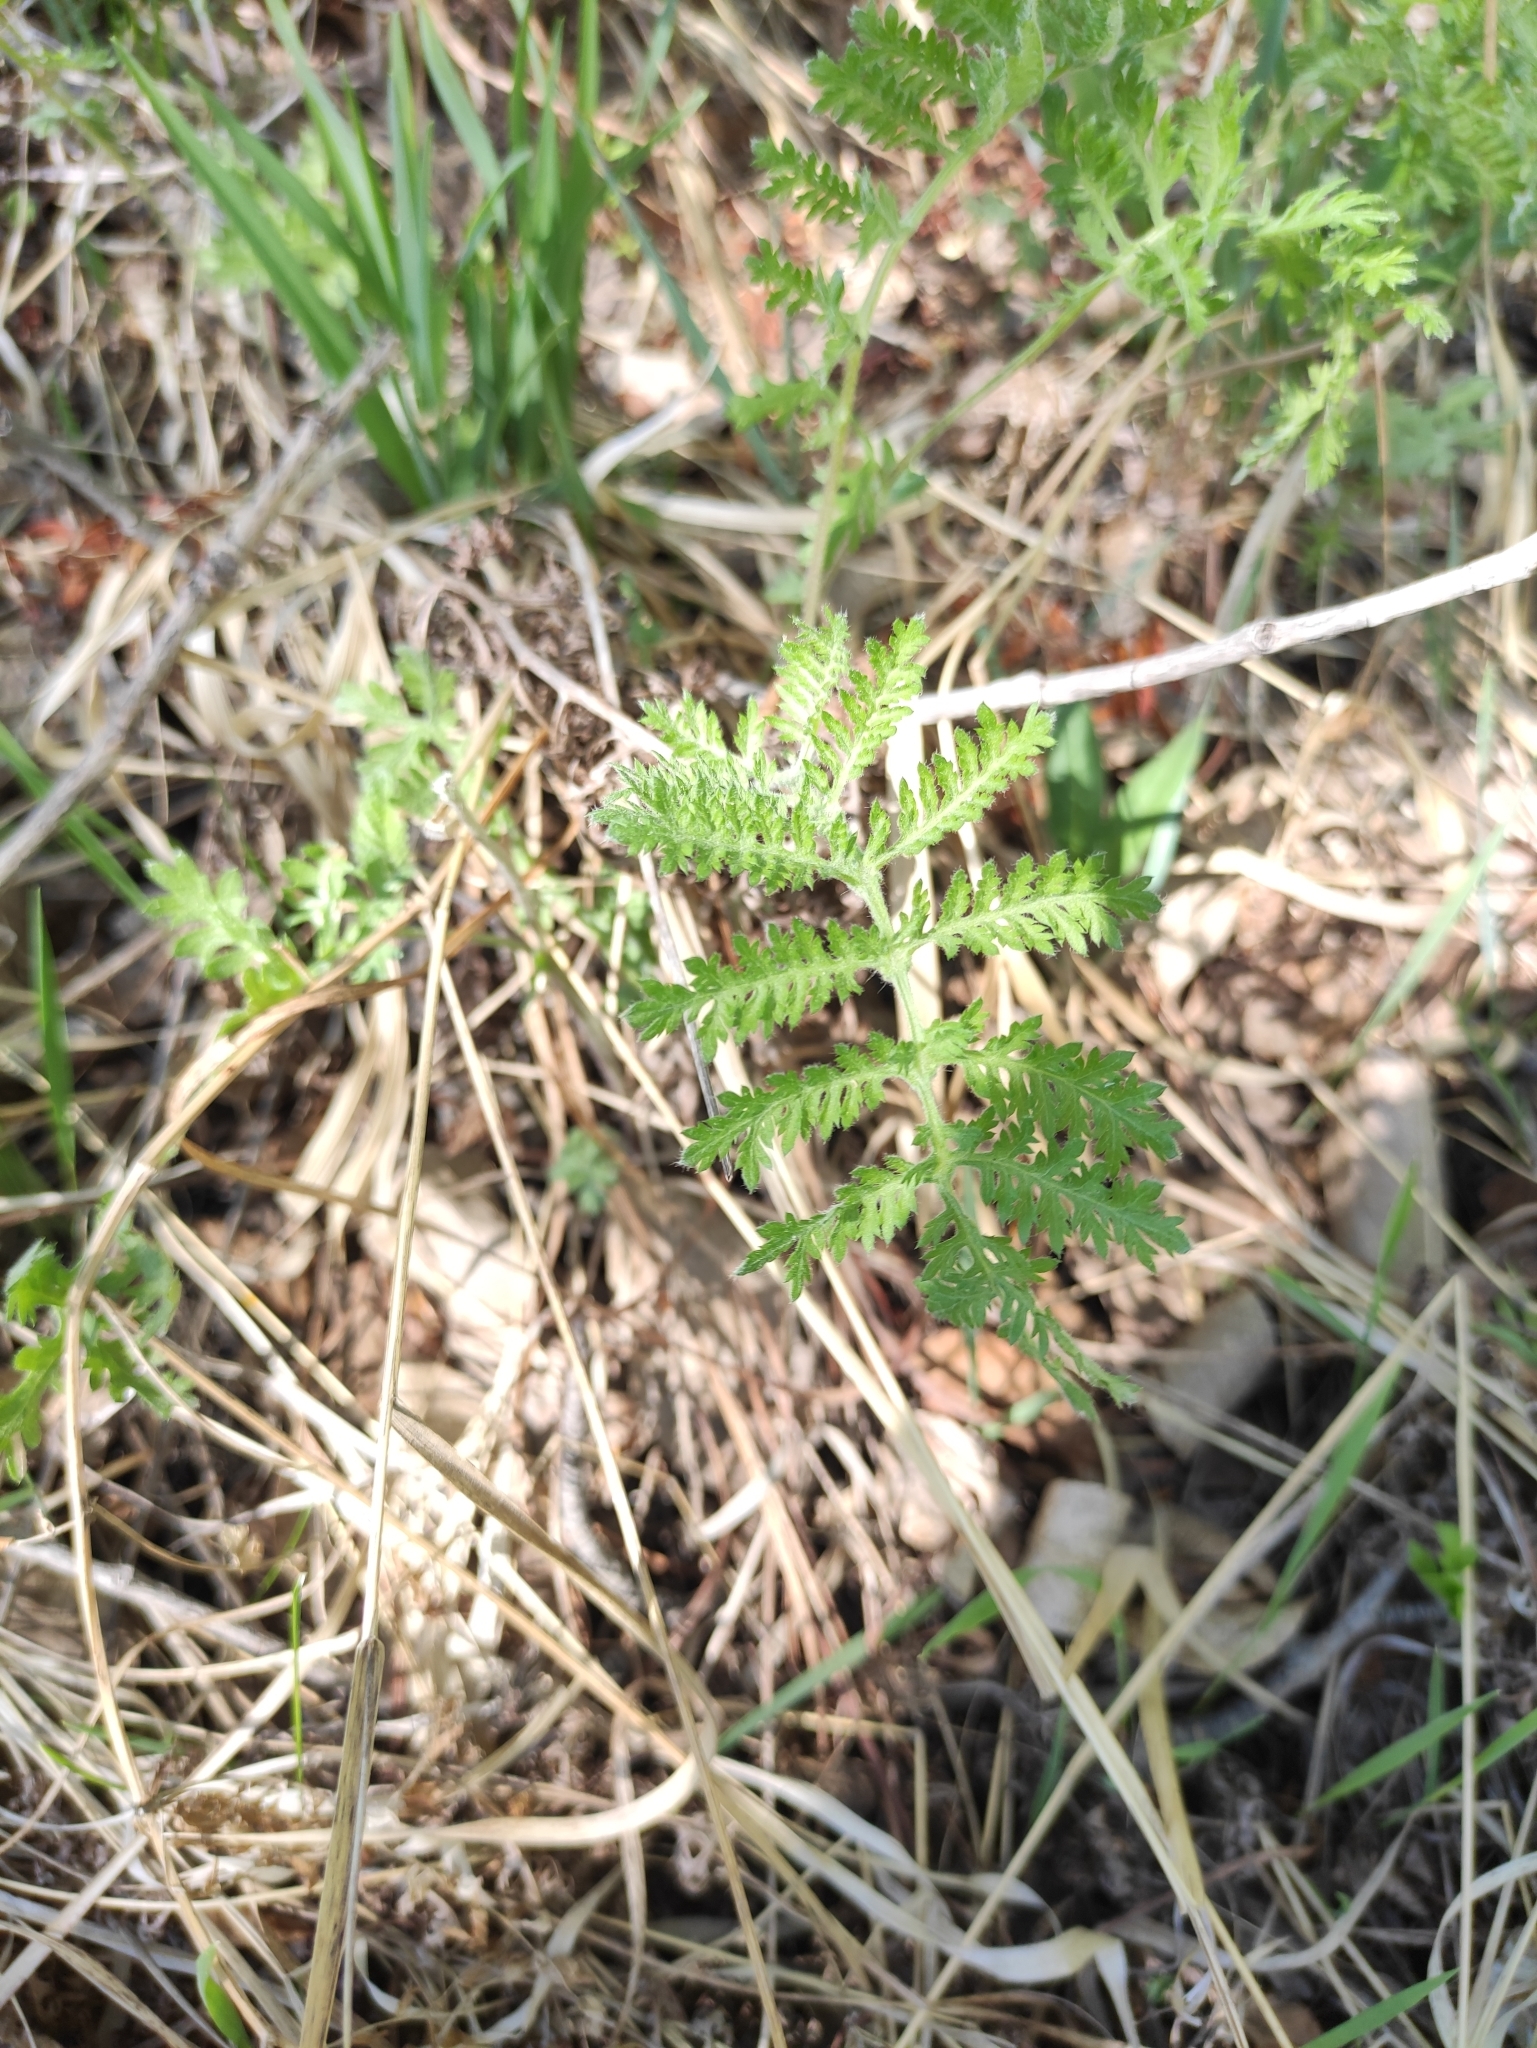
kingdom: Plantae
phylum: Tracheophyta
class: Magnoliopsida
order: Asterales
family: Asteraceae
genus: Artemisia
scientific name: Artemisia tanacetifolia
